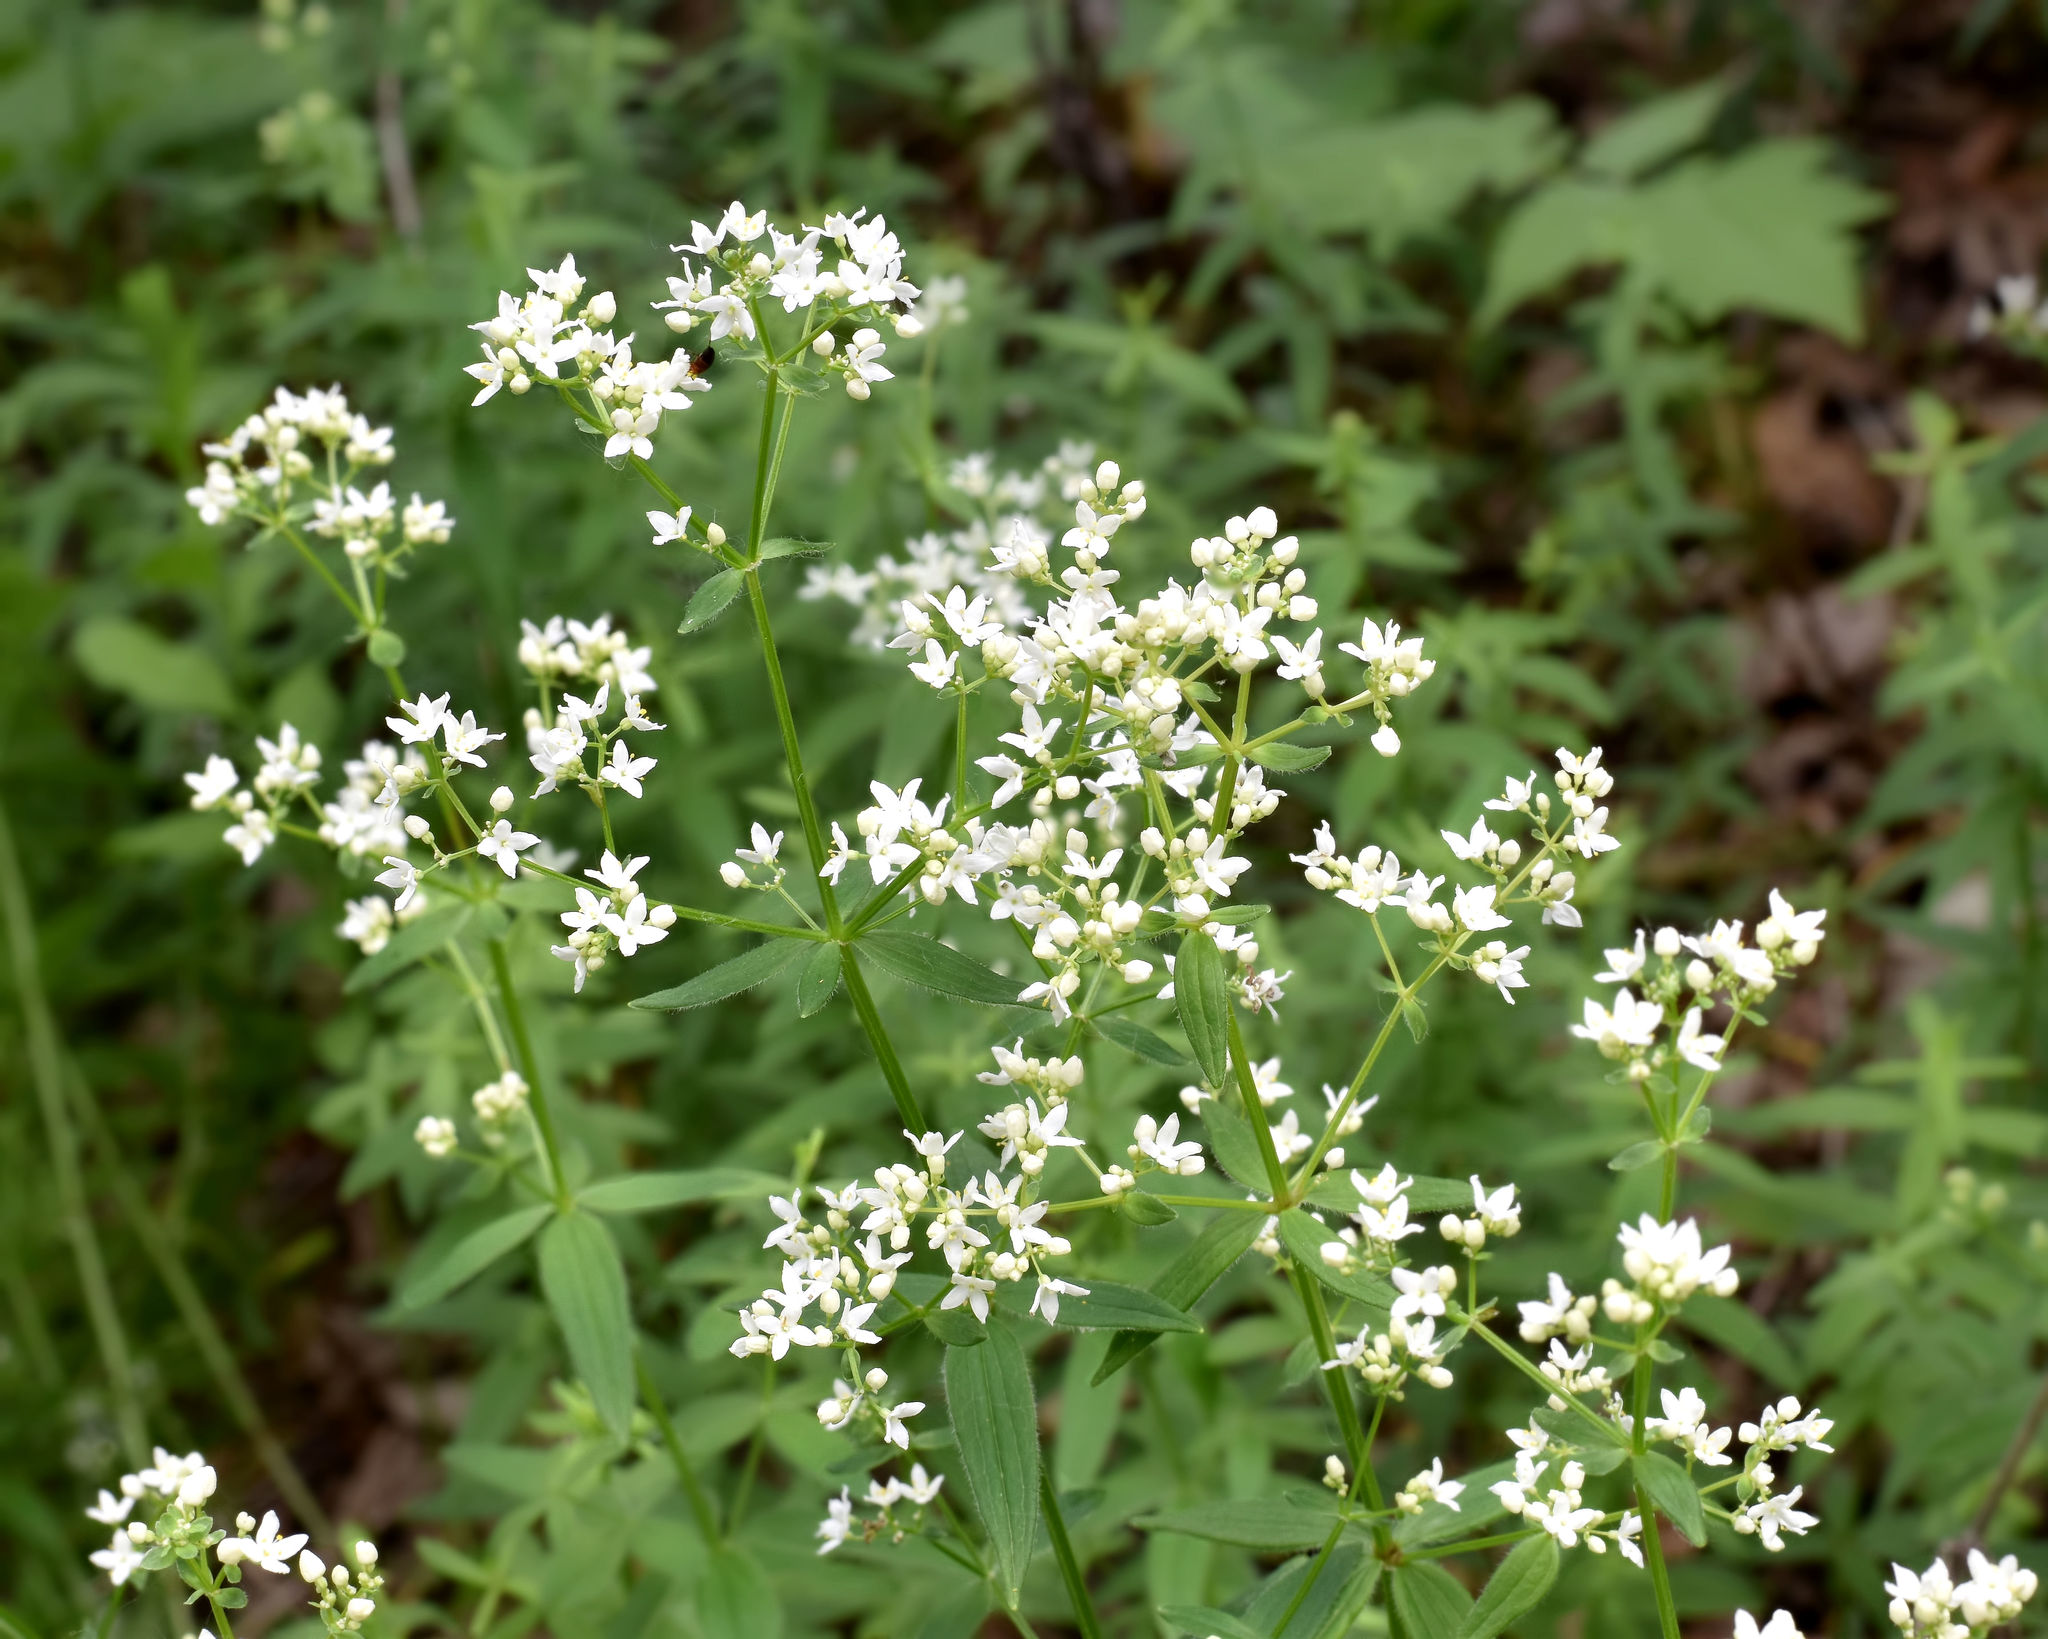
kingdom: Plantae
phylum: Tracheophyta
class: Magnoliopsida
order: Gentianales
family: Rubiaceae
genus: Galium
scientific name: Galium boreale
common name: Northern bedstraw
